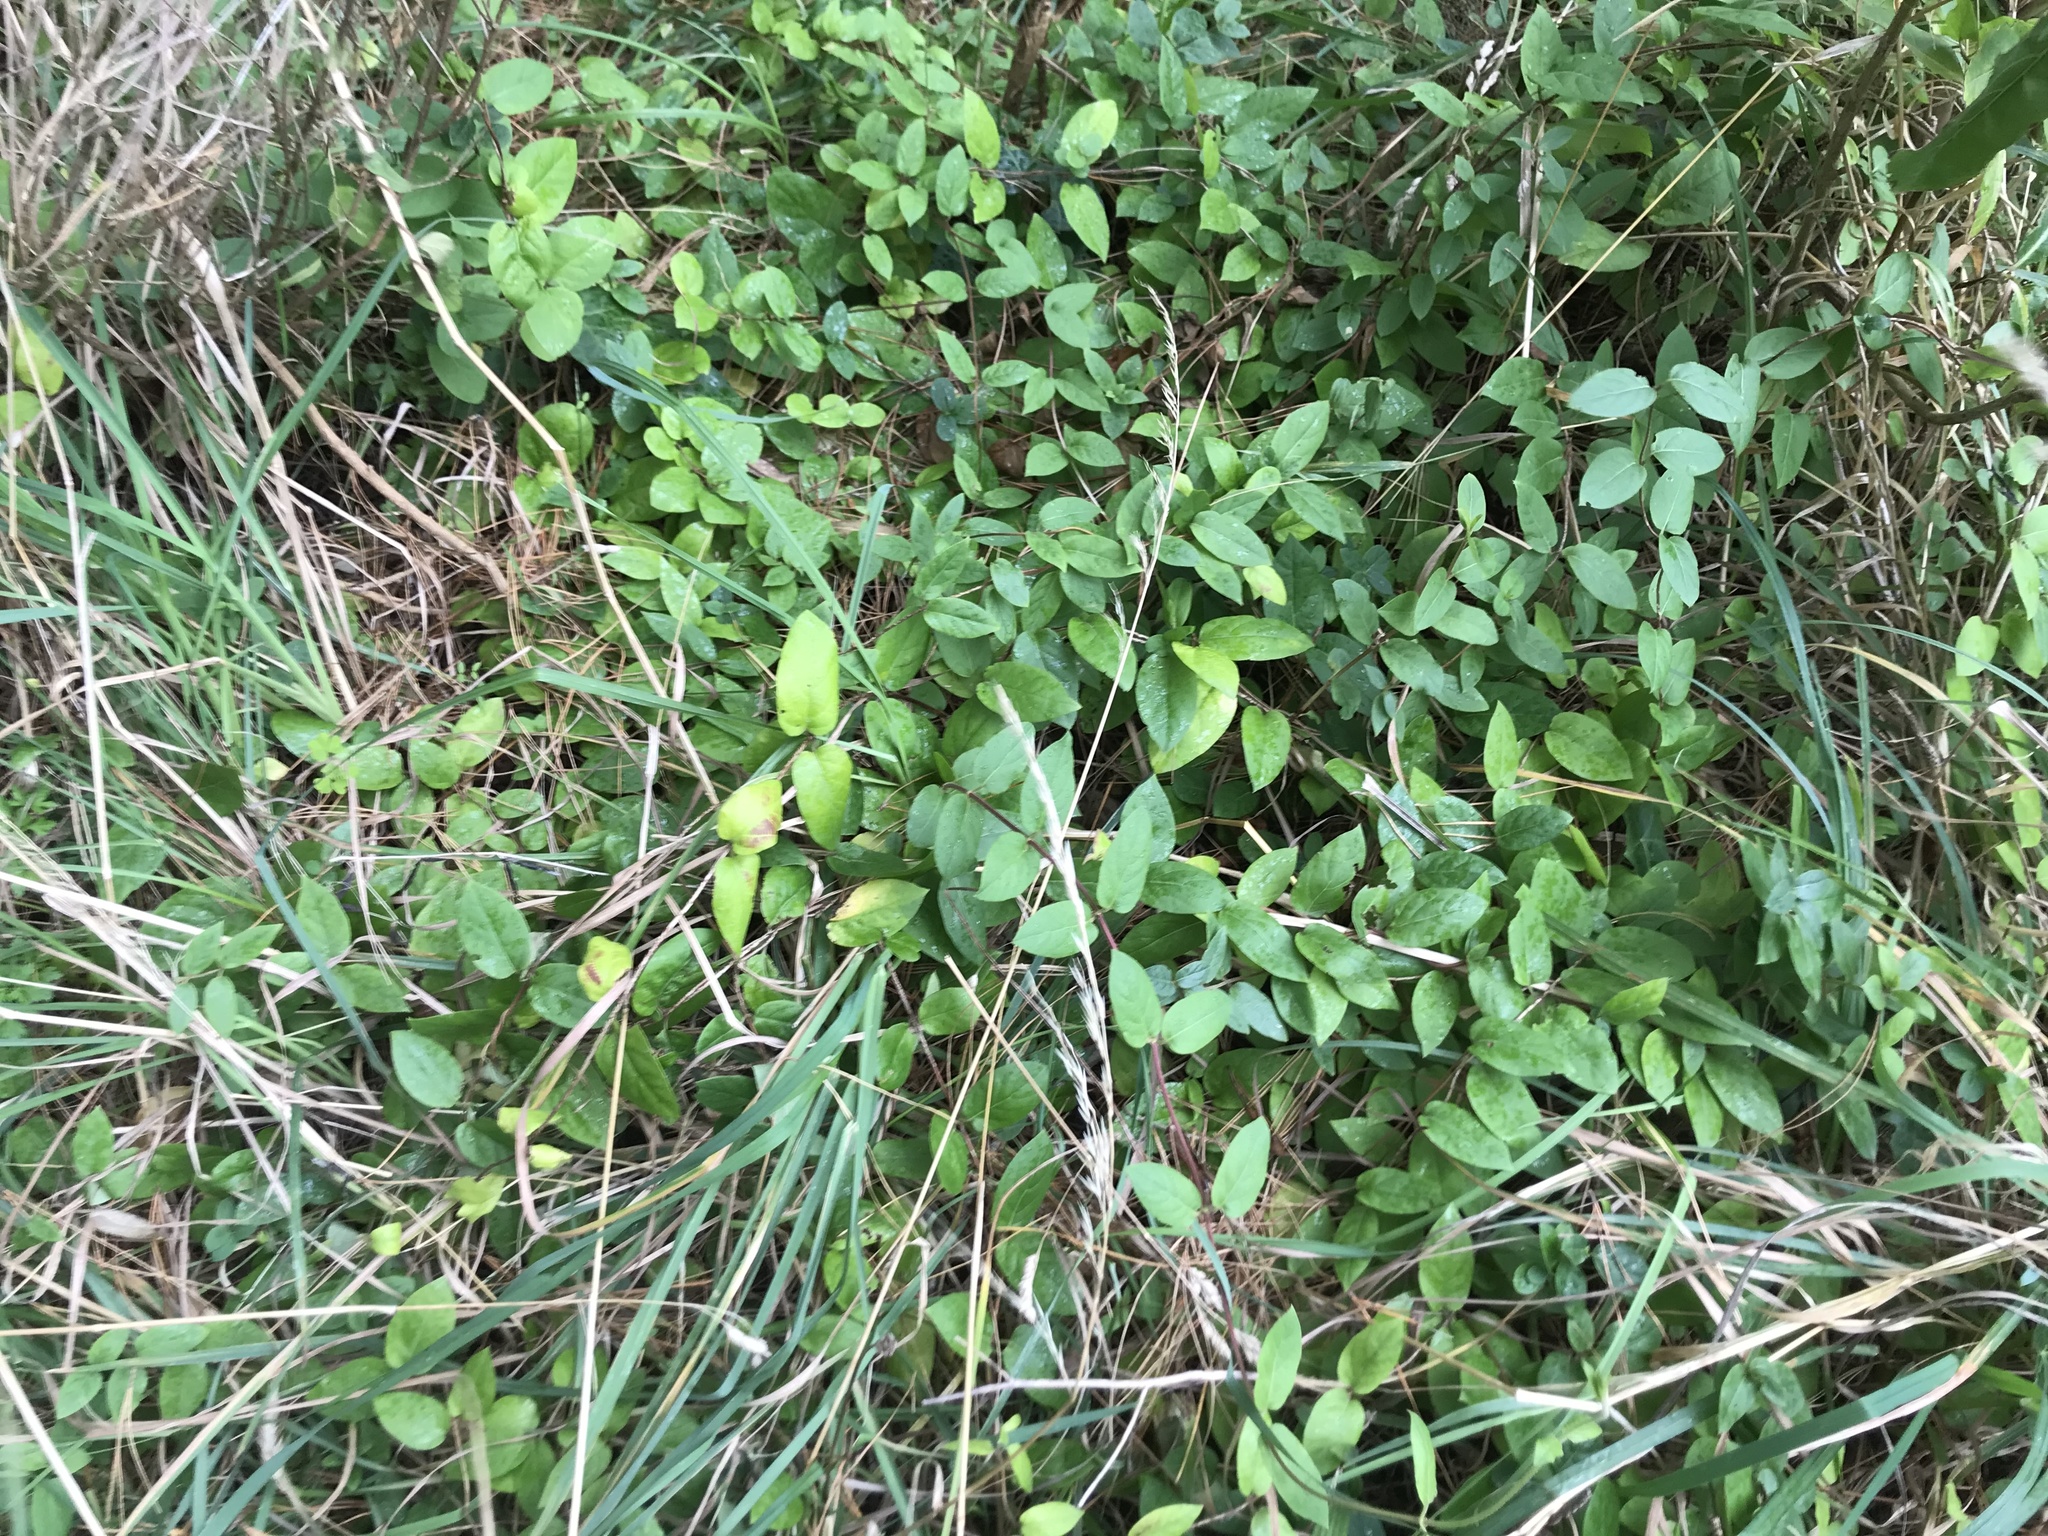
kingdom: Plantae
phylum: Tracheophyta
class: Magnoliopsida
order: Dipsacales
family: Caprifoliaceae
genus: Lonicera
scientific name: Lonicera japonica
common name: Japanese honeysuckle
